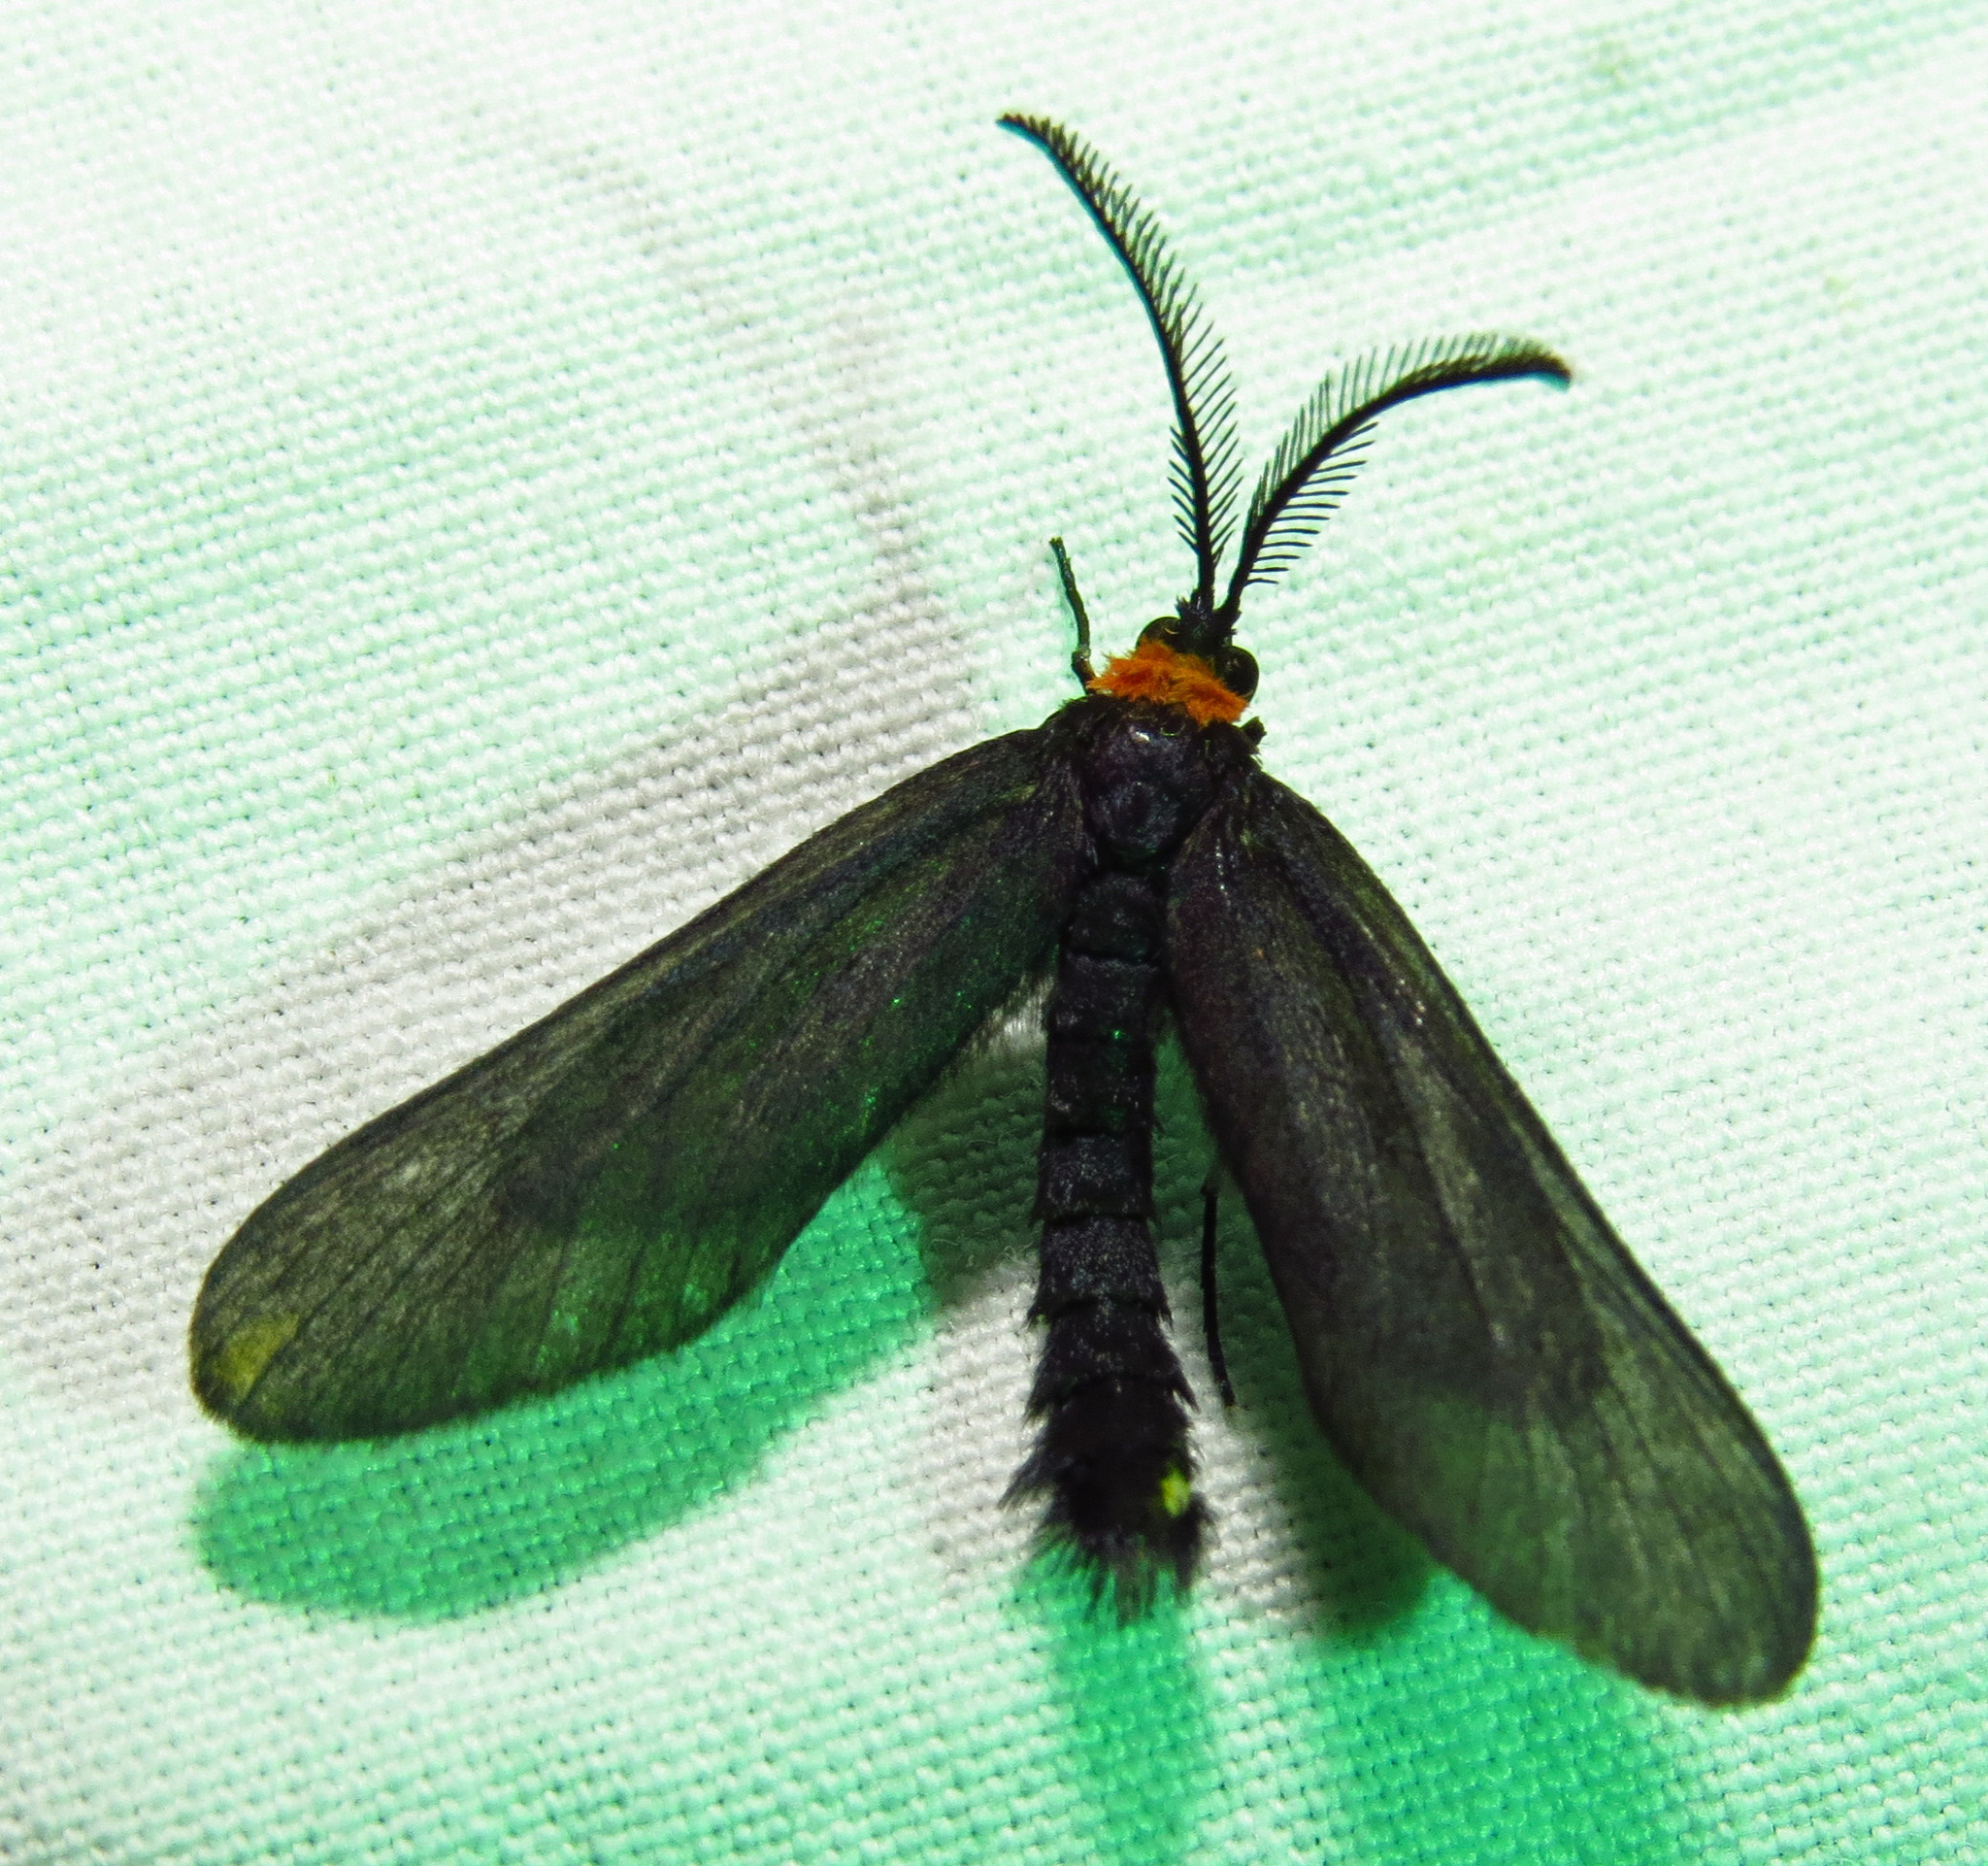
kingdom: Animalia
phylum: Arthropoda
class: Insecta
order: Lepidoptera
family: Zygaenidae
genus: Harrisina
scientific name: Harrisina americana
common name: Grapeleaf skeletonizer moth
